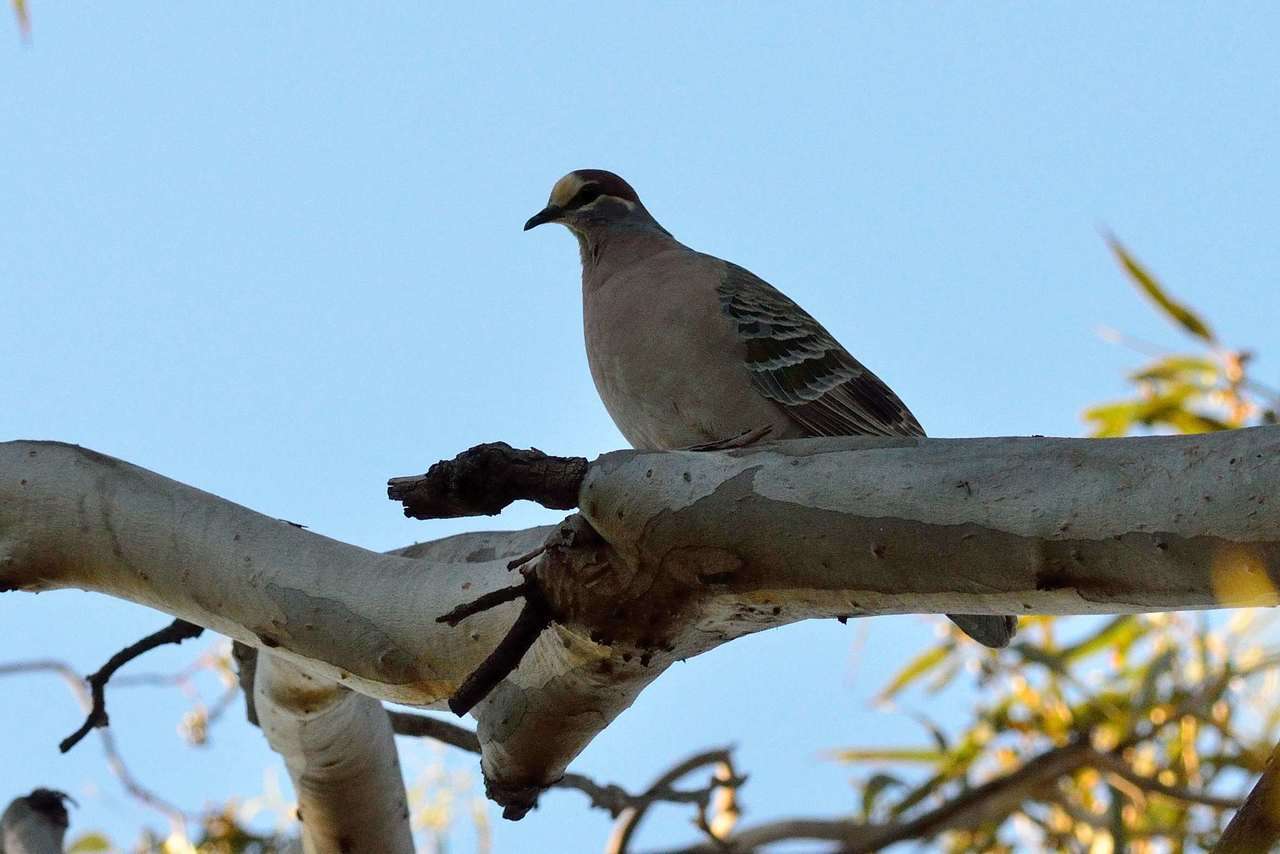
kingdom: Animalia
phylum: Chordata
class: Aves
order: Columbiformes
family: Columbidae
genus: Phaps
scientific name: Phaps chalcoptera
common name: Common bronzewing
